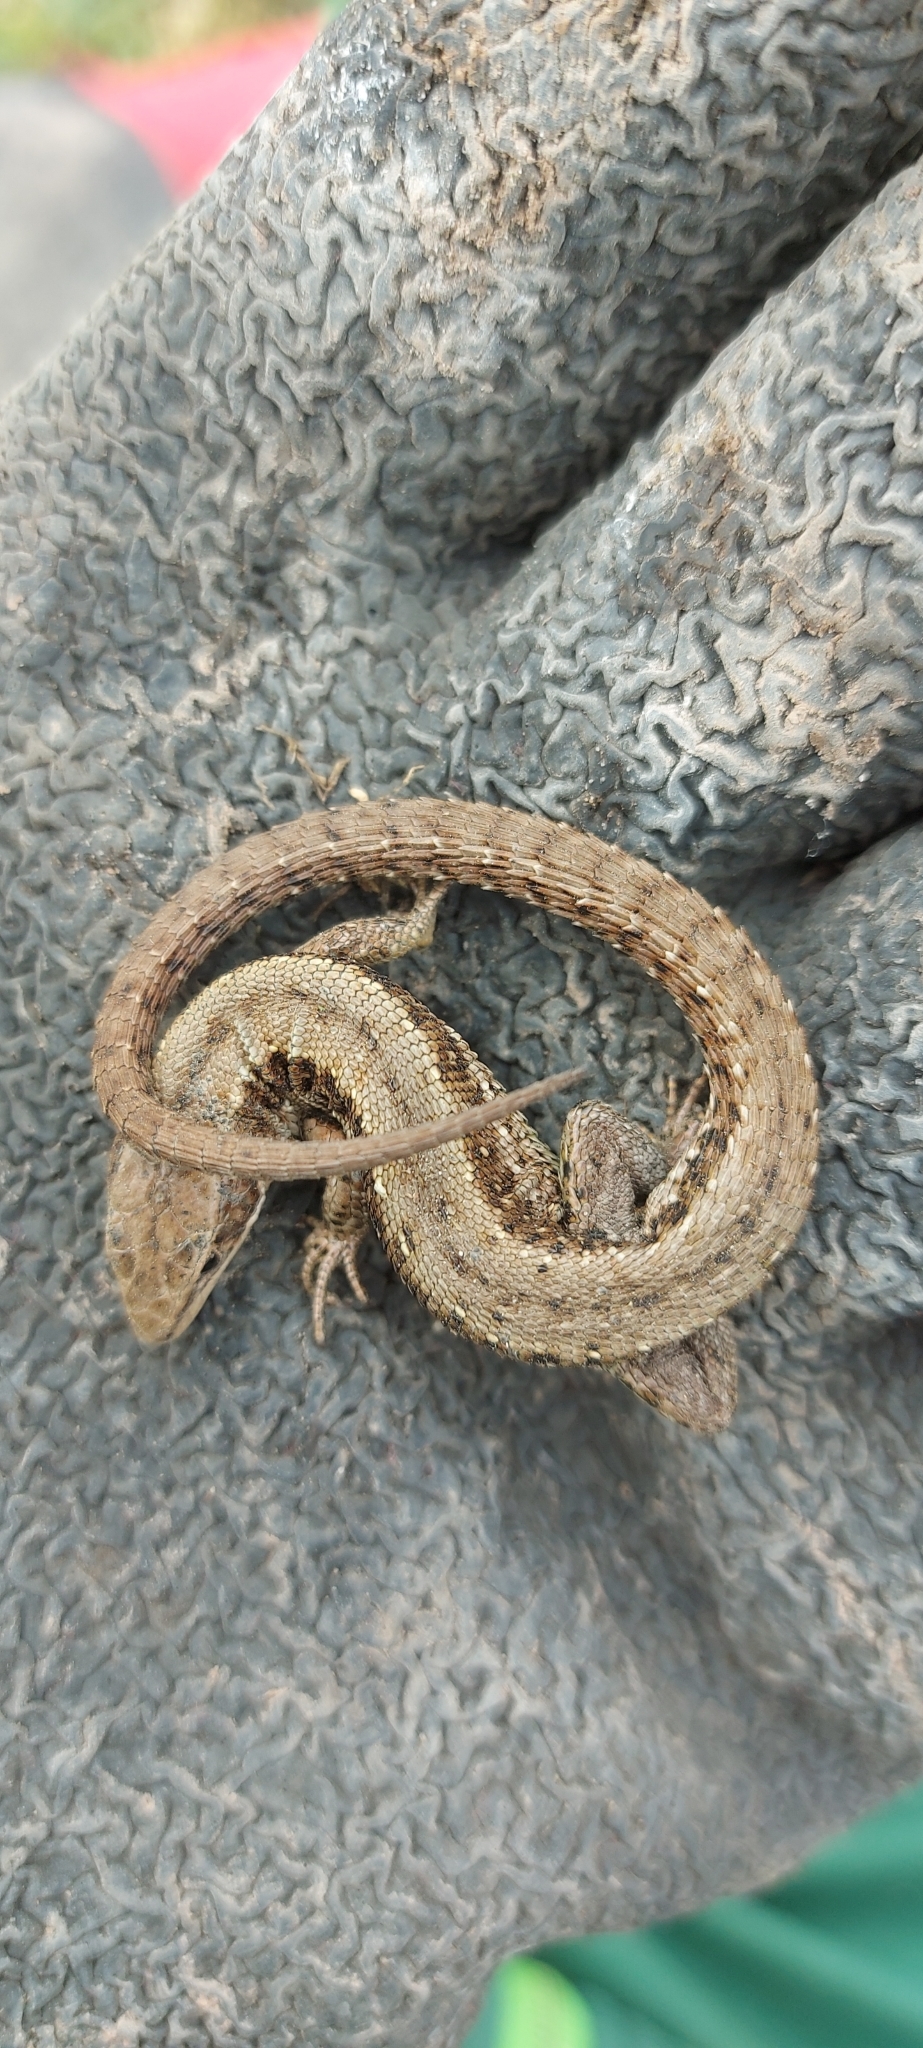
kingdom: Animalia
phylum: Chordata
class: Squamata
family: Lacertidae
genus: Zootoca
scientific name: Zootoca vivipara
